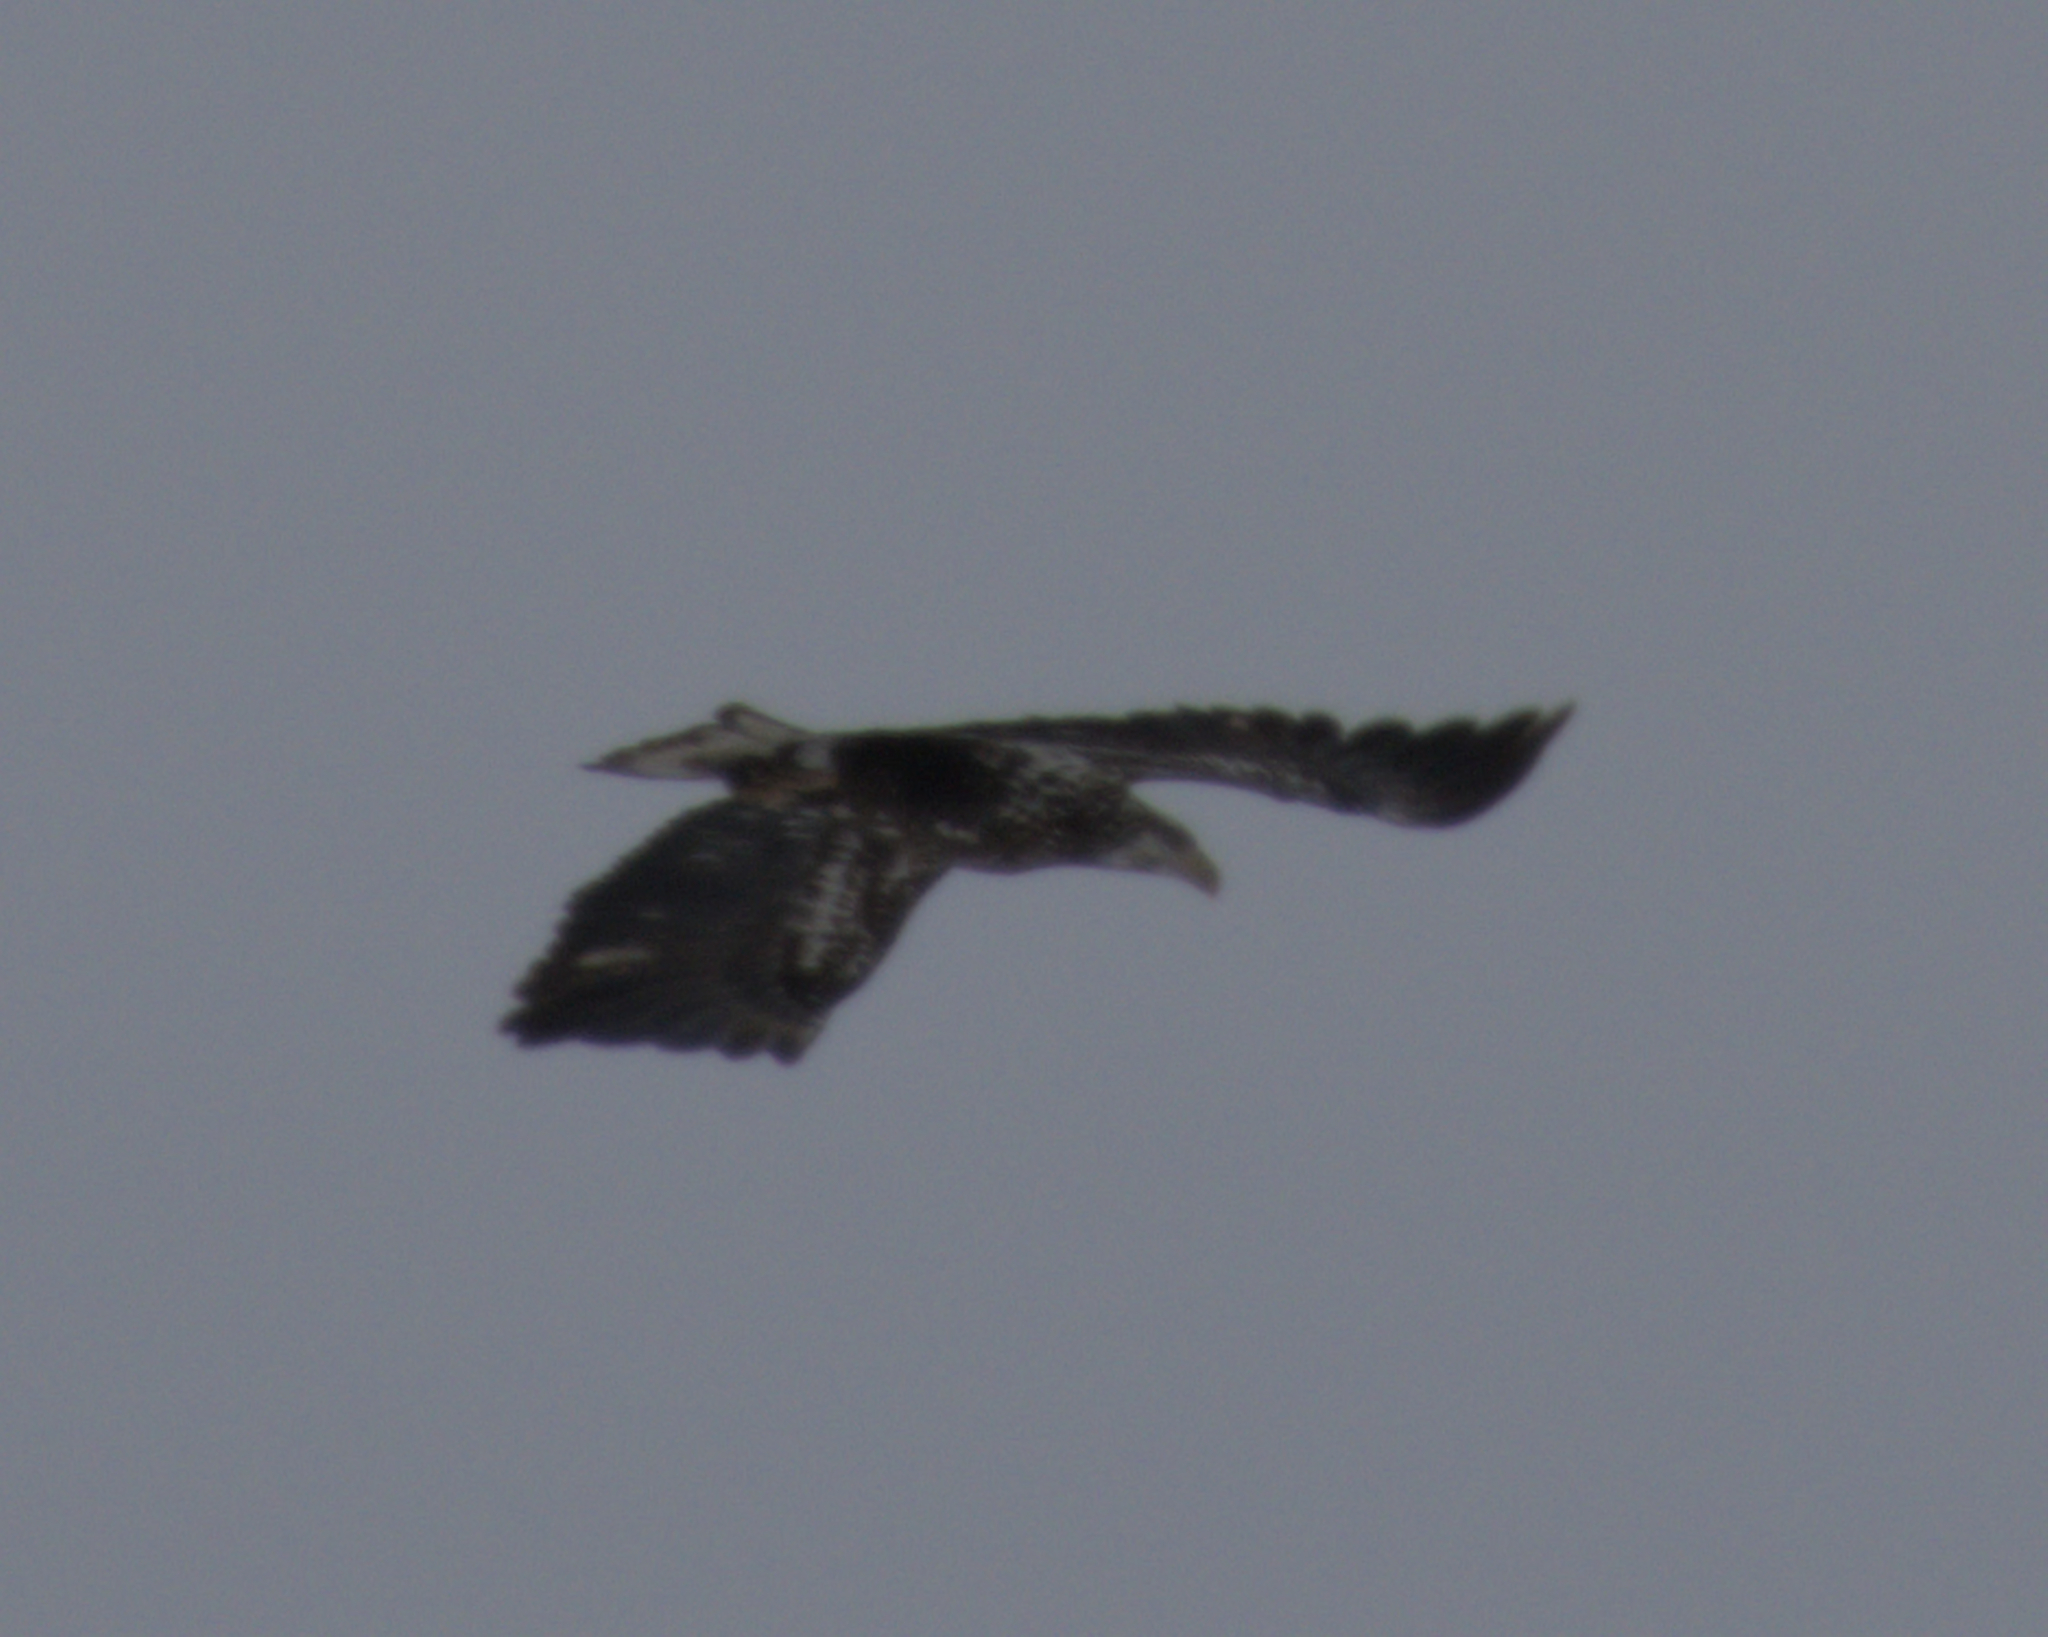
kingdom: Animalia
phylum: Chordata
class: Aves
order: Accipitriformes
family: Accipitridae
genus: Haliaeetus
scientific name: Haliaeetus leucocephalus
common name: Bald eagle
